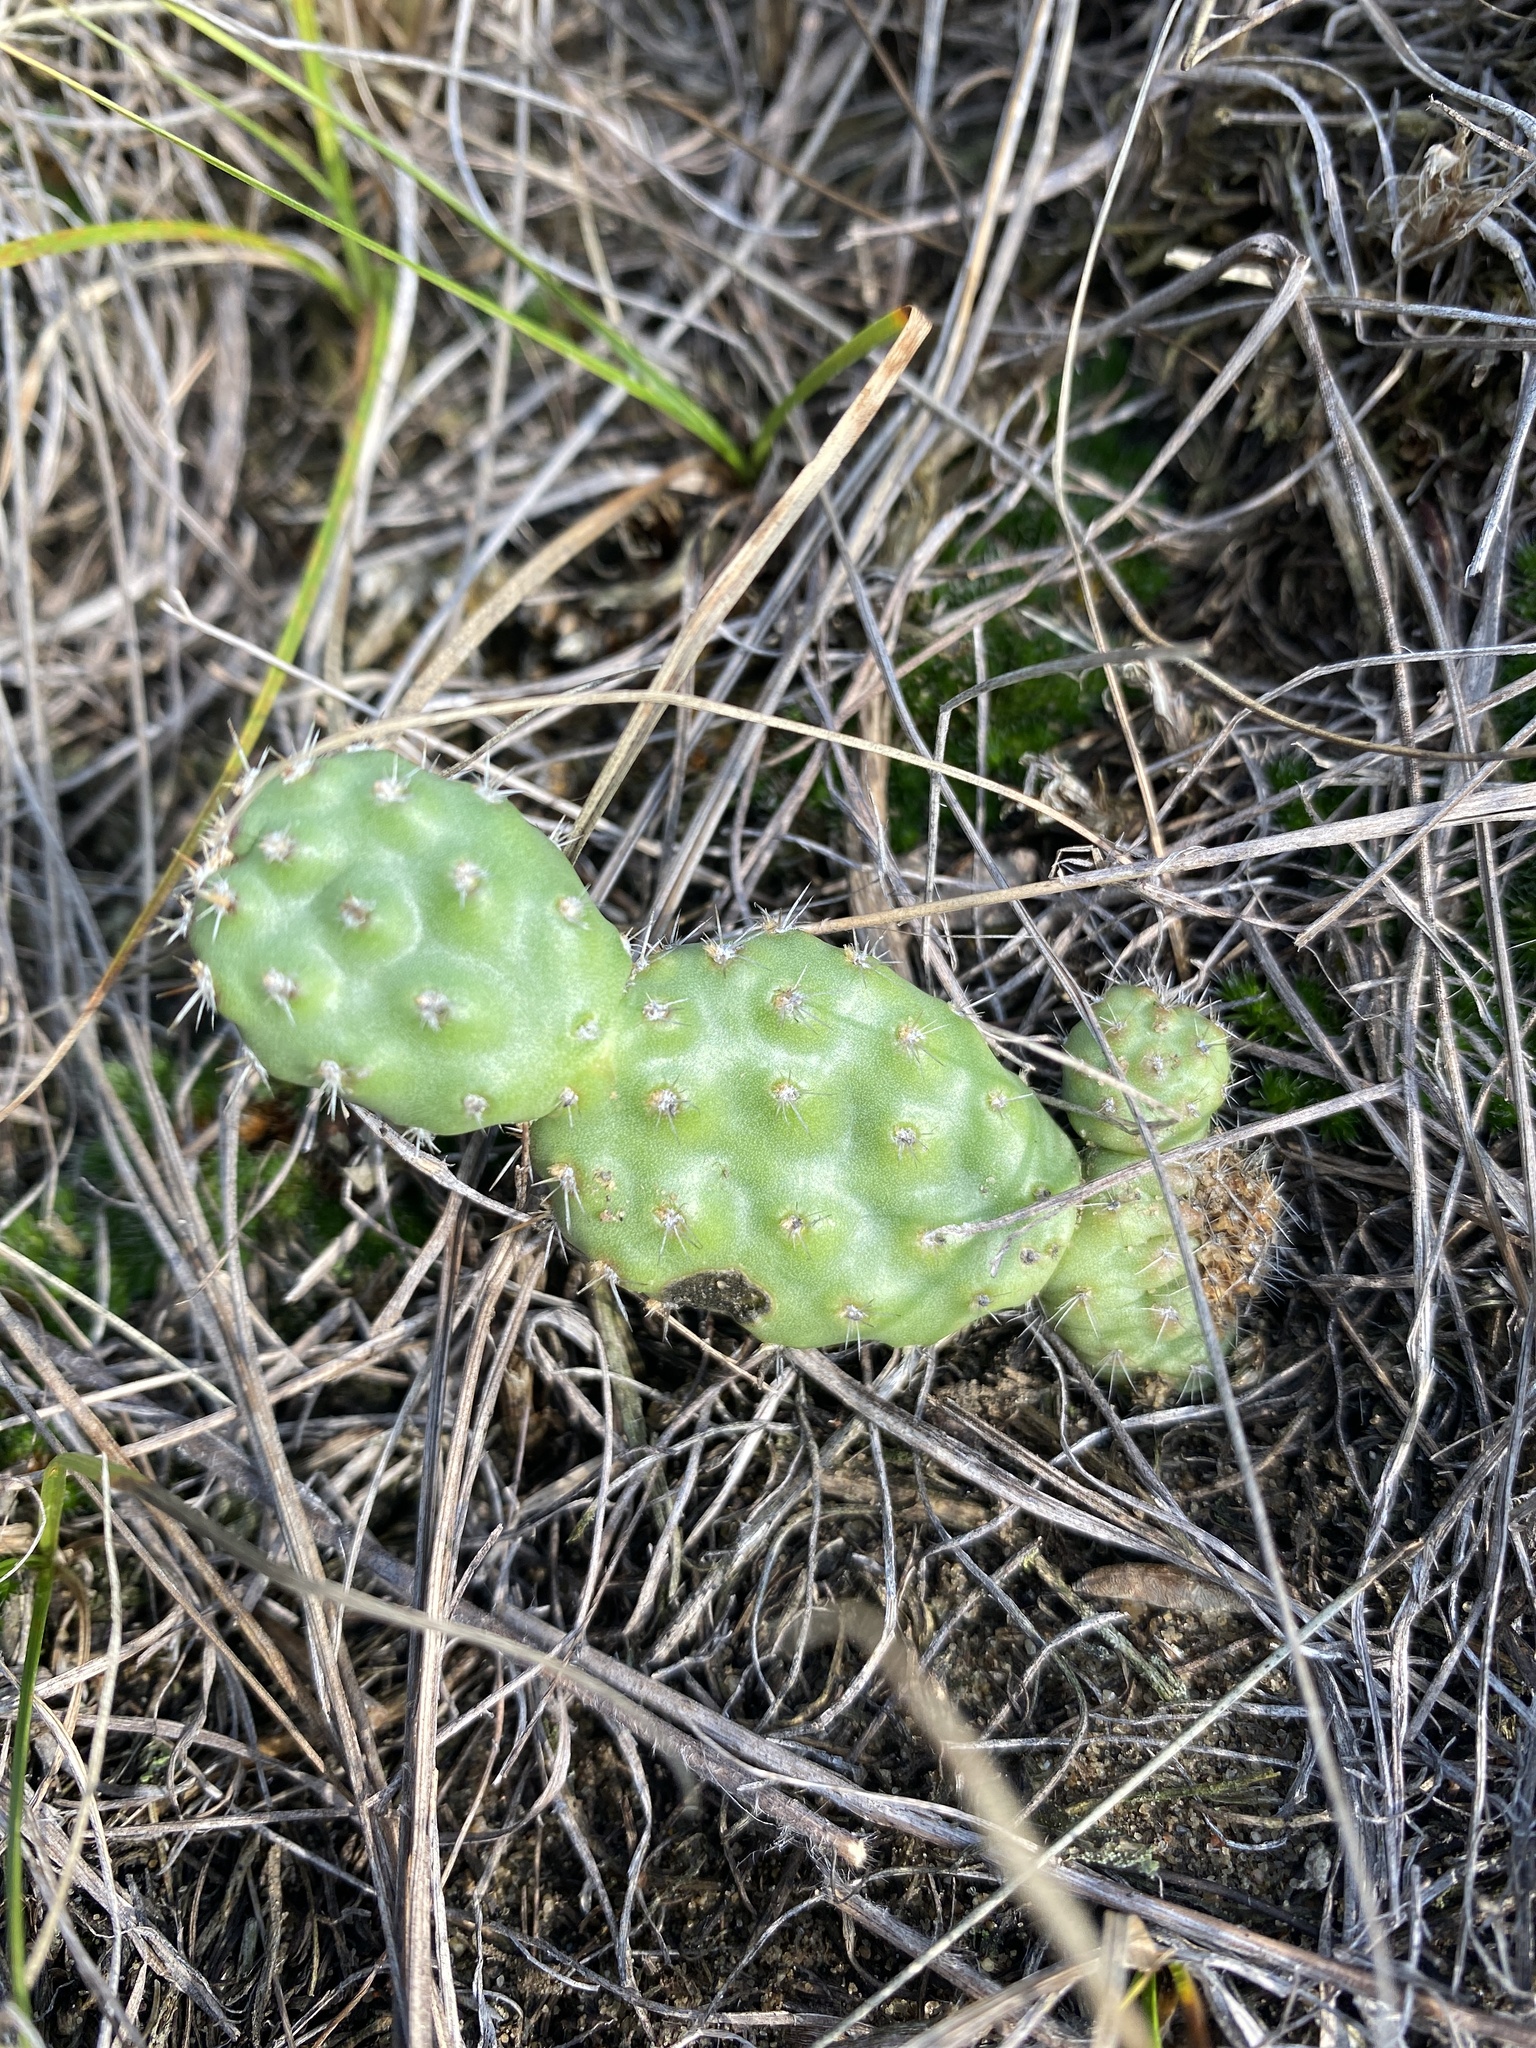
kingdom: Plantae
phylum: Tracheophyta
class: Magnoliopsida
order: Caryophyllales
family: Cactaceae
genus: Opuntia
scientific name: Opuntia polyacantha
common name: Plains prickly-pear
